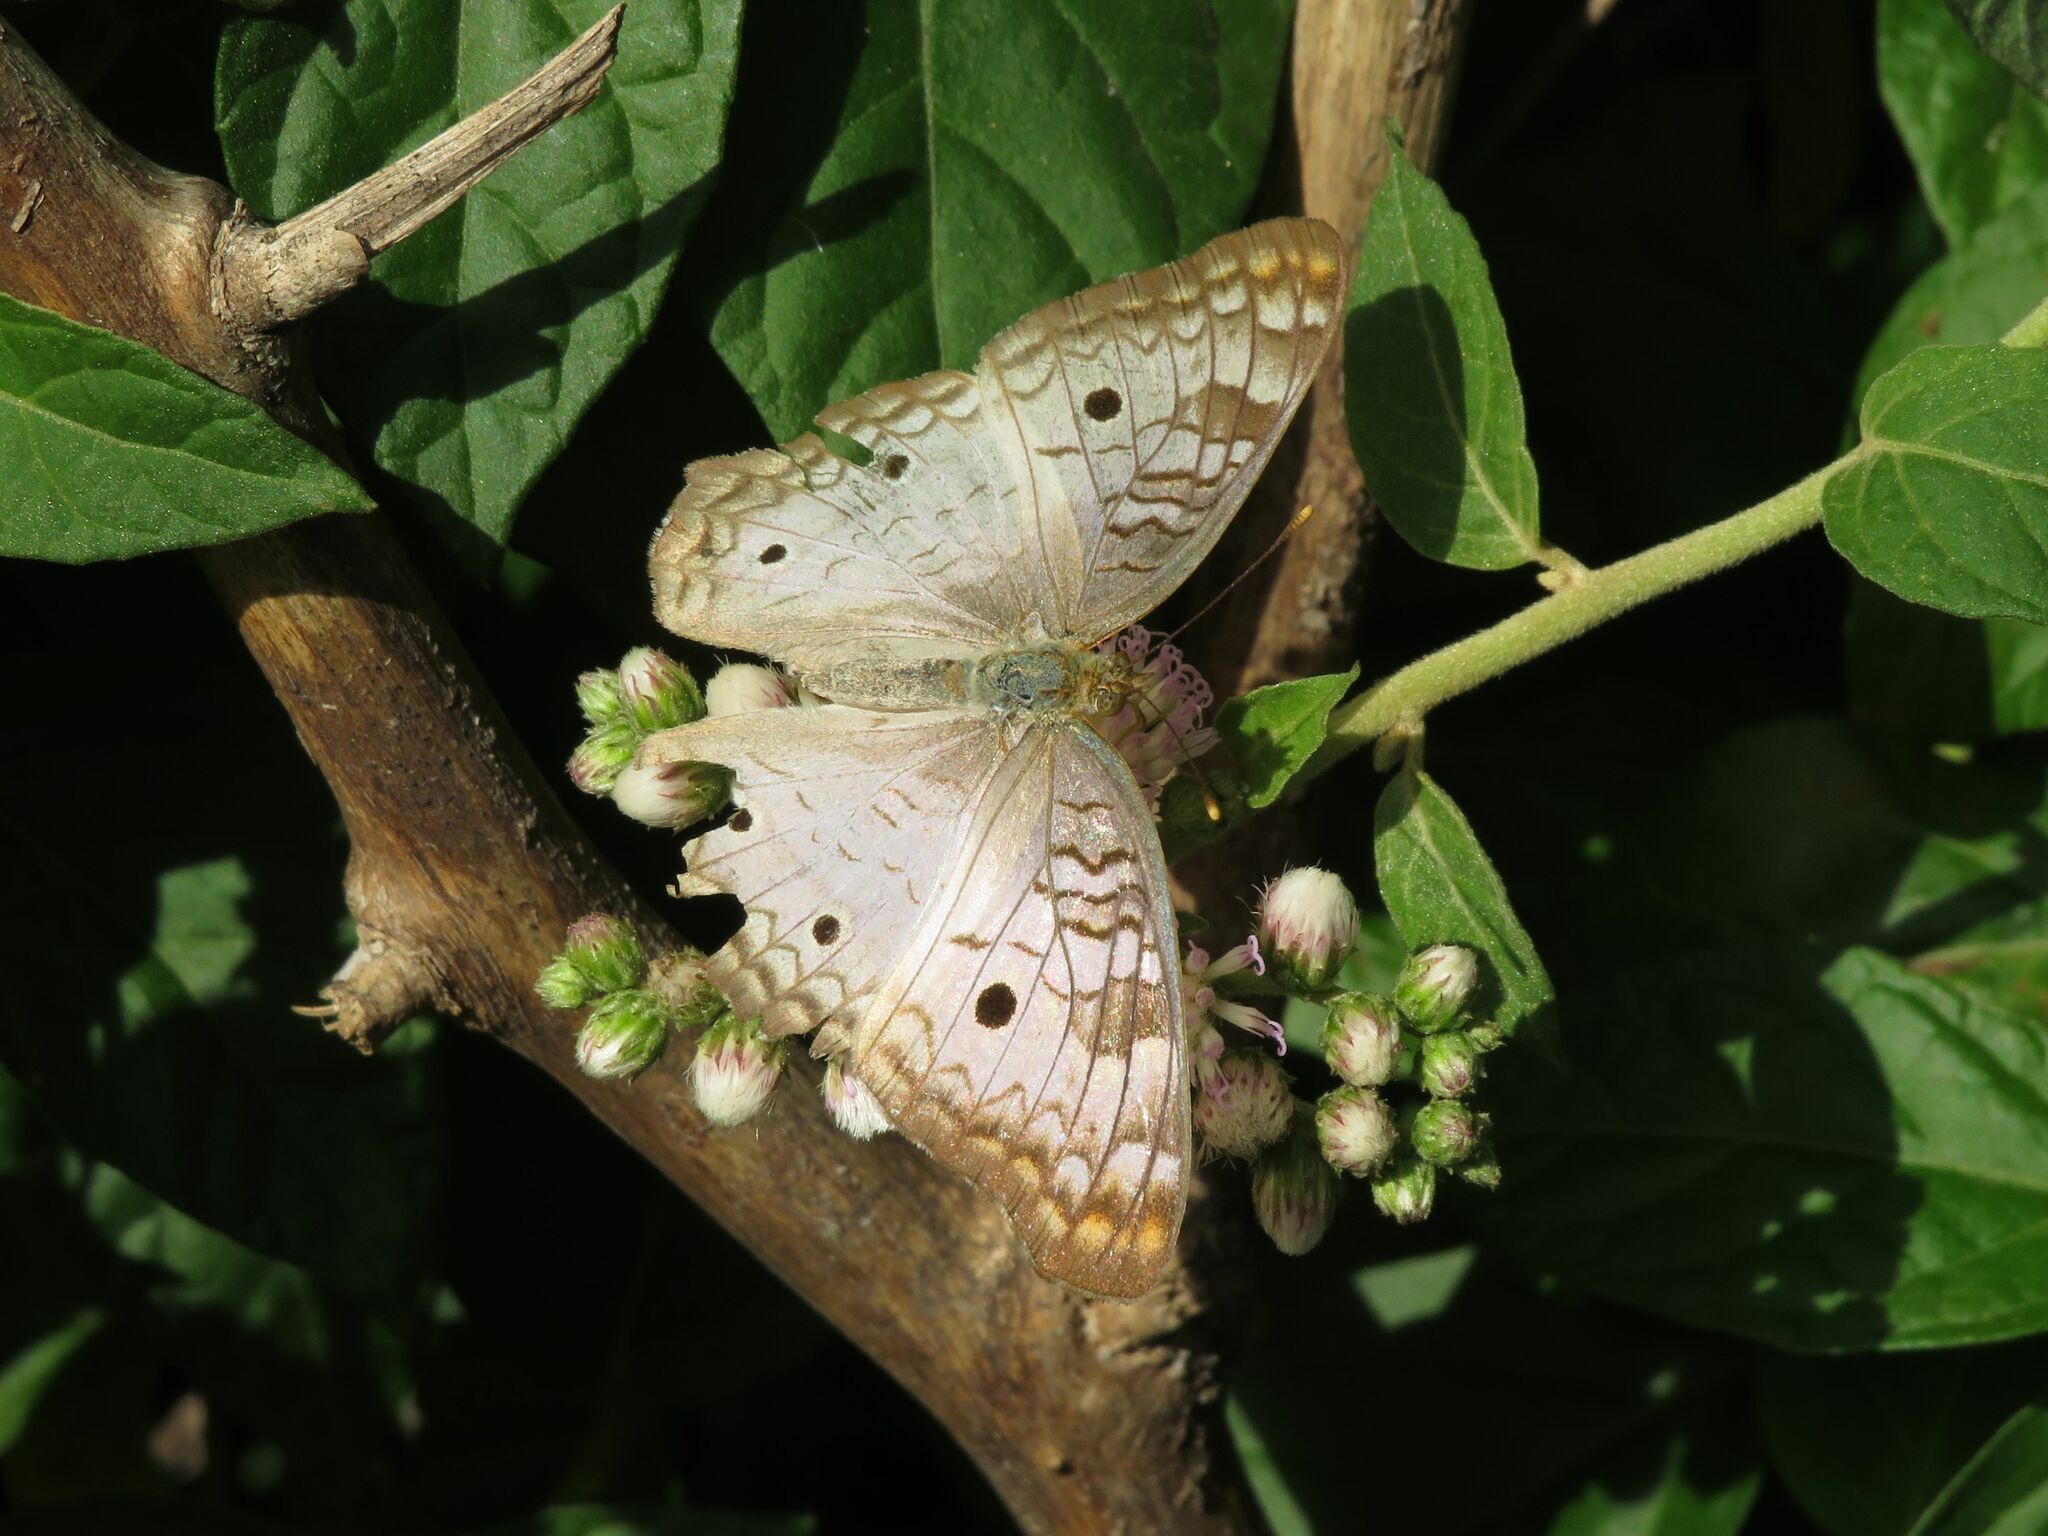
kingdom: Animalia
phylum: Arthropoda
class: Insecta
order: Lepidoptera
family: Nymphalidae
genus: Anartia
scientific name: Anartia jatrophae
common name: White peacock
